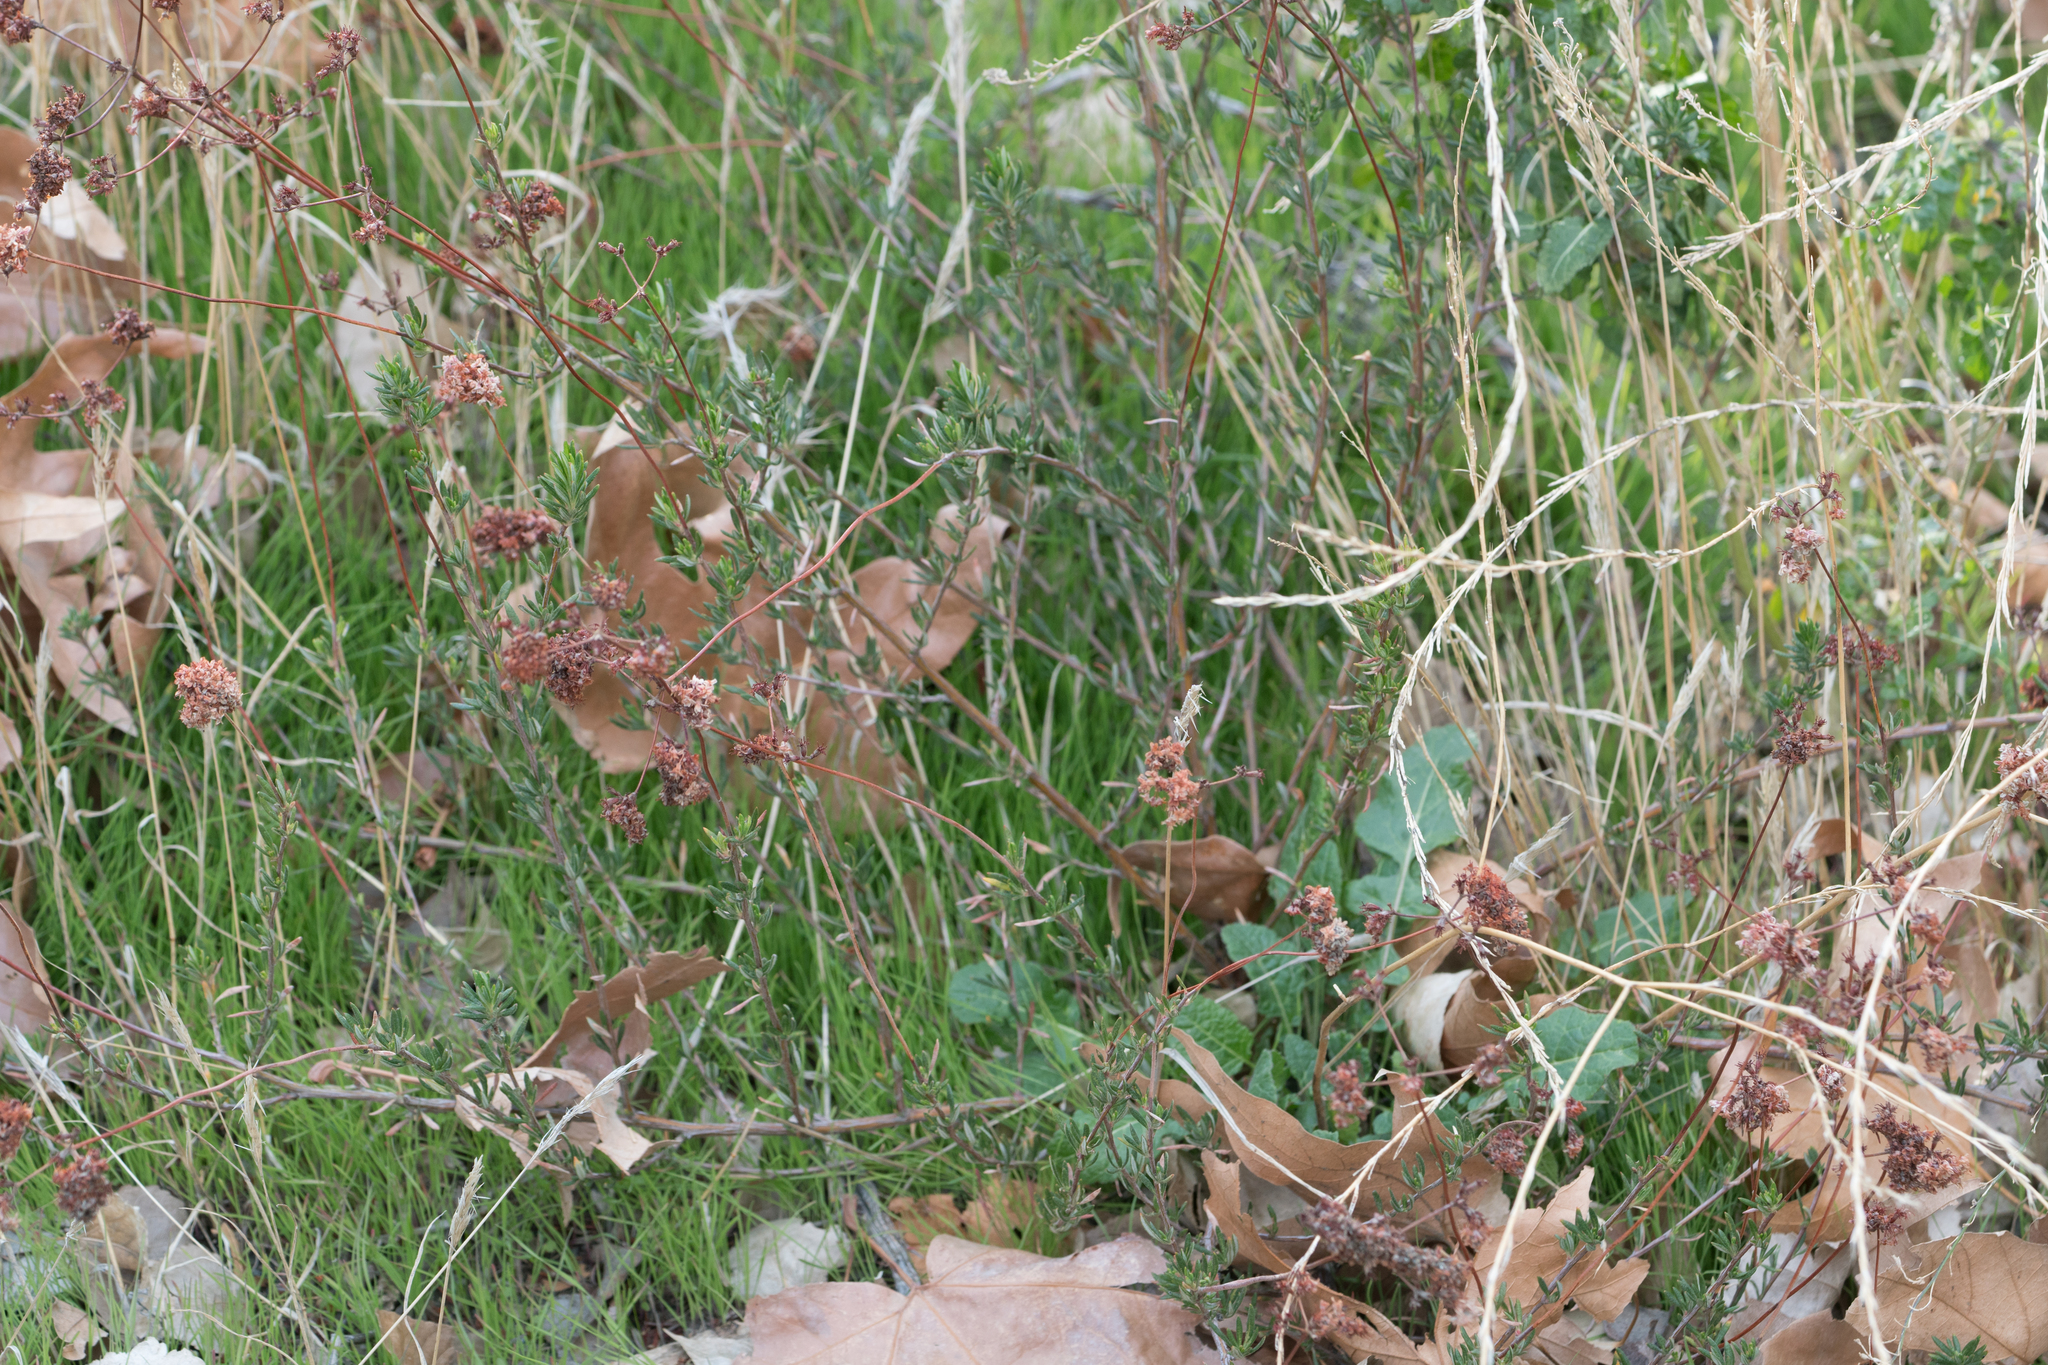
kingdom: Plantae
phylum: Tracheophyta
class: Magnoliopsida
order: Caryophyllales
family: Polygonaceae
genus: Eriogonum
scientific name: Eriogonum fasciculatum
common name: California wild buckwheat
